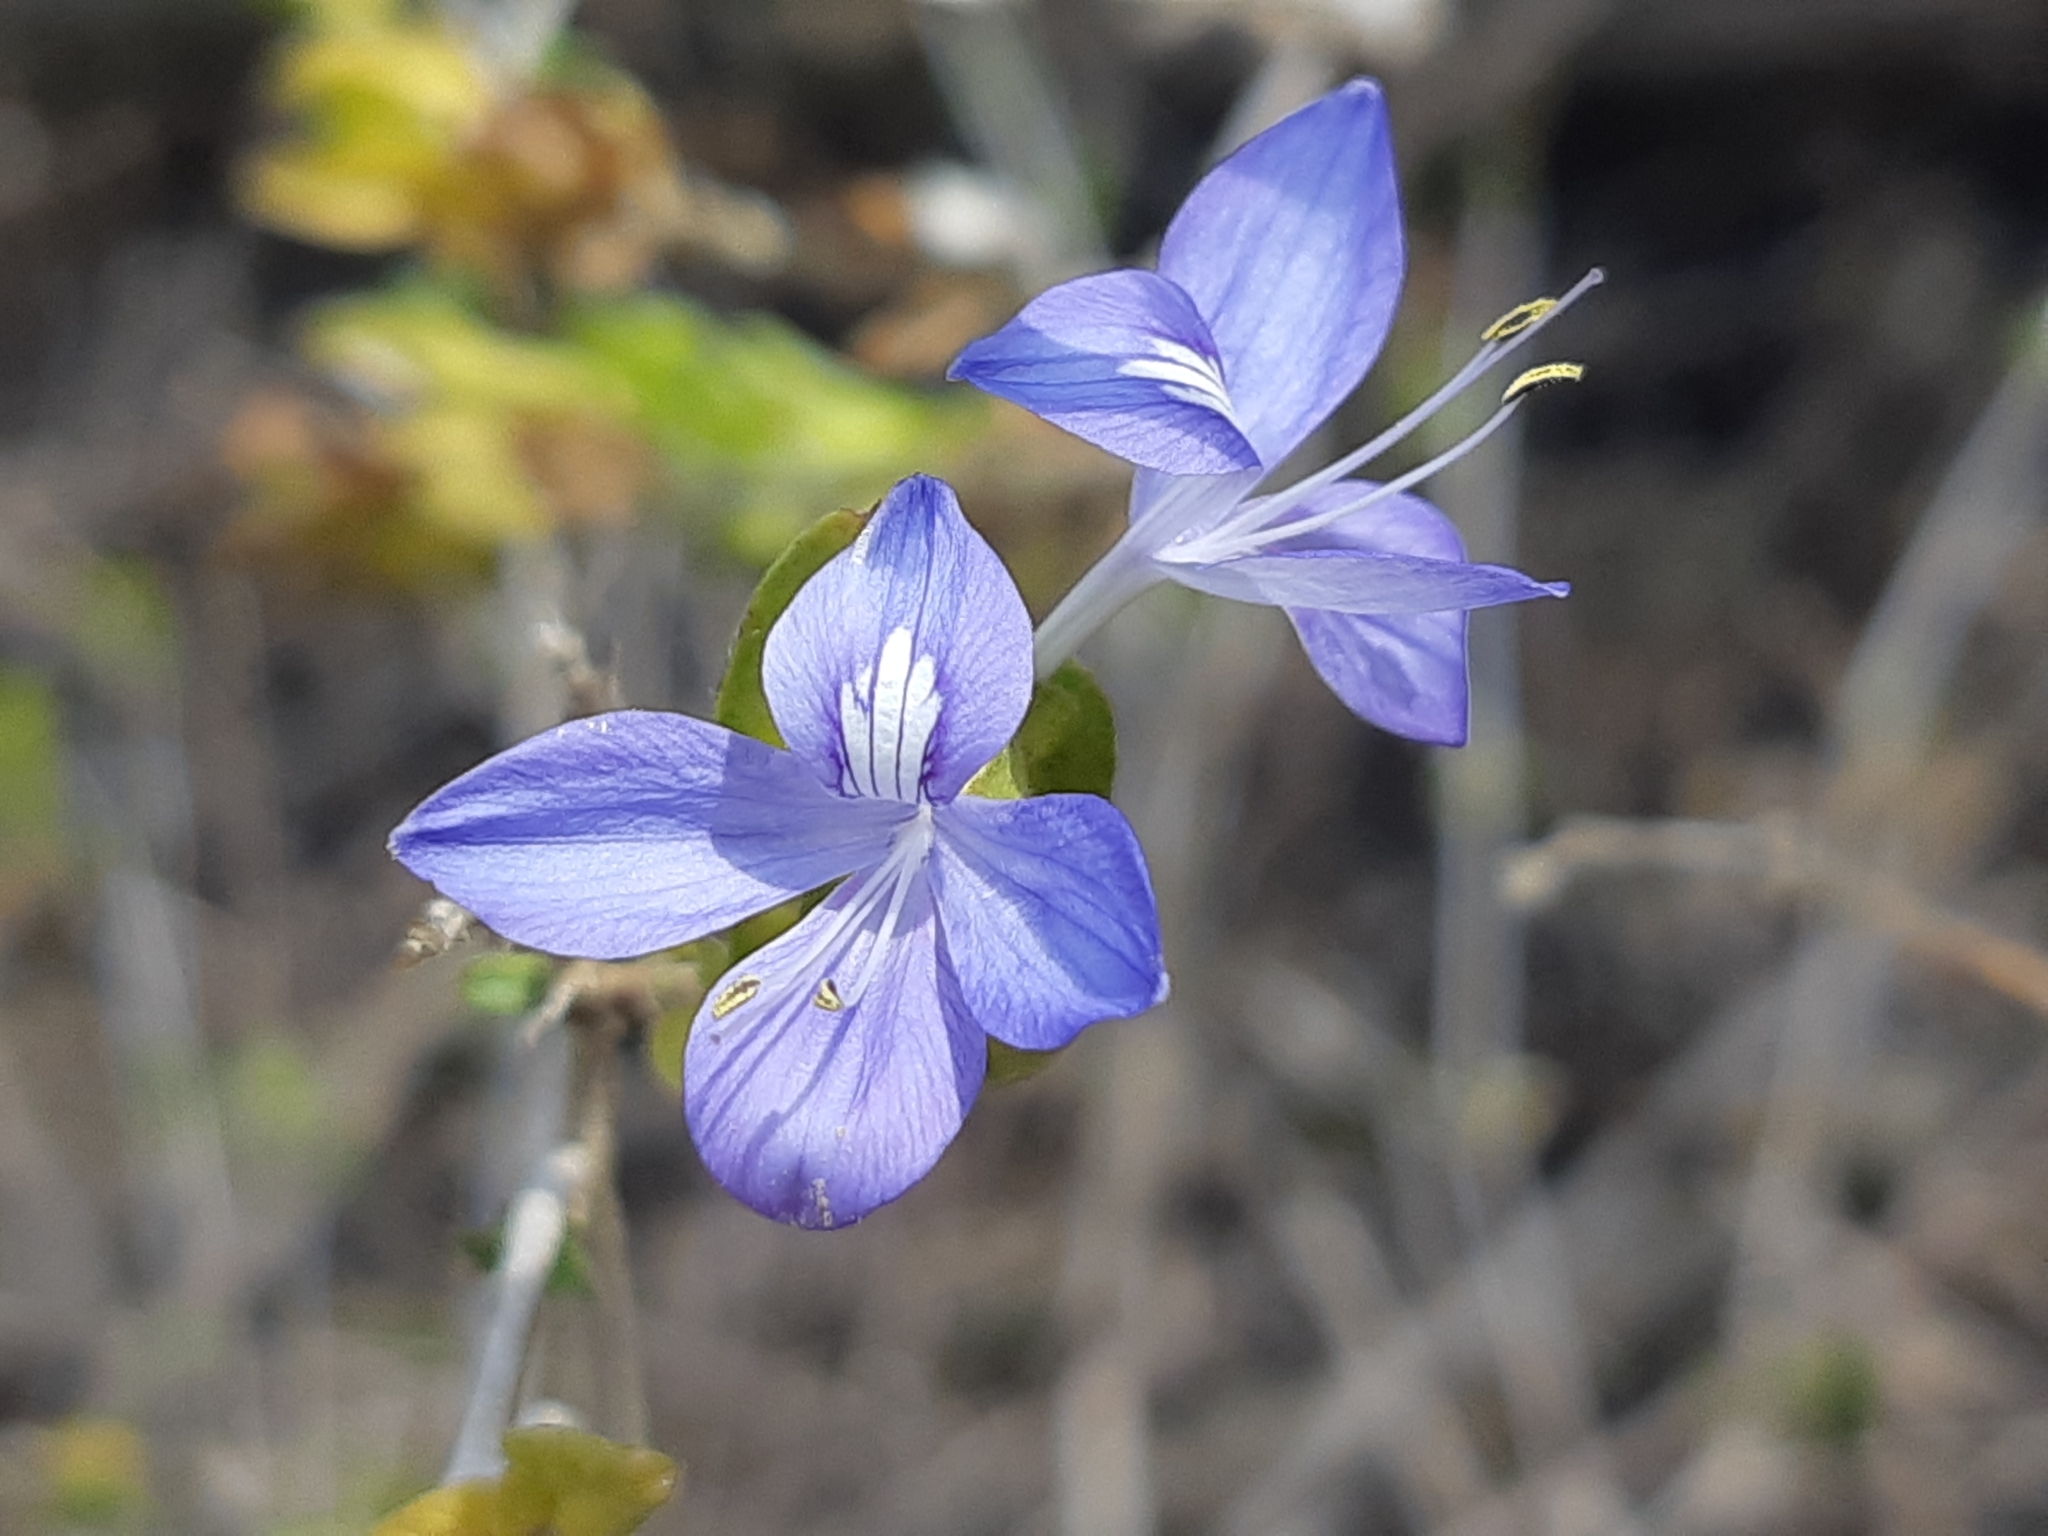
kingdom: Plantae
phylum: Tracheophyta
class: Magnoliopsida
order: Lamiales
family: Acanthaceae
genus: Tetramerium
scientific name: Tetramerium wasshausenii
